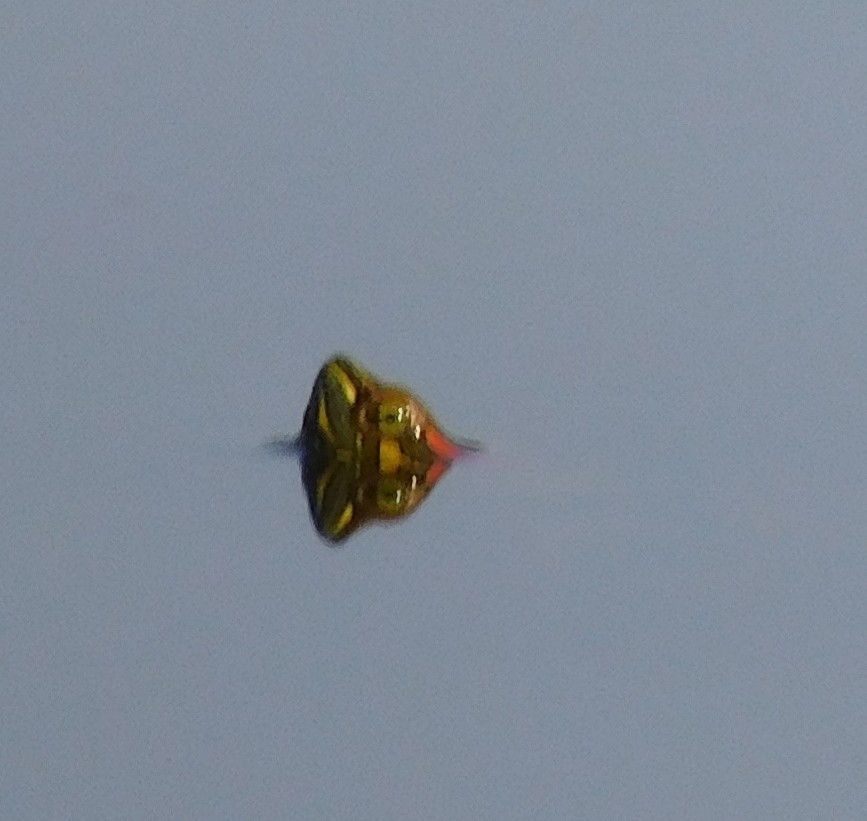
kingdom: Animalia
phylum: Chordata
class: Testudines
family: Emydidae
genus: Trachemys
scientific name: Trachemys scripta
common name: Slider
